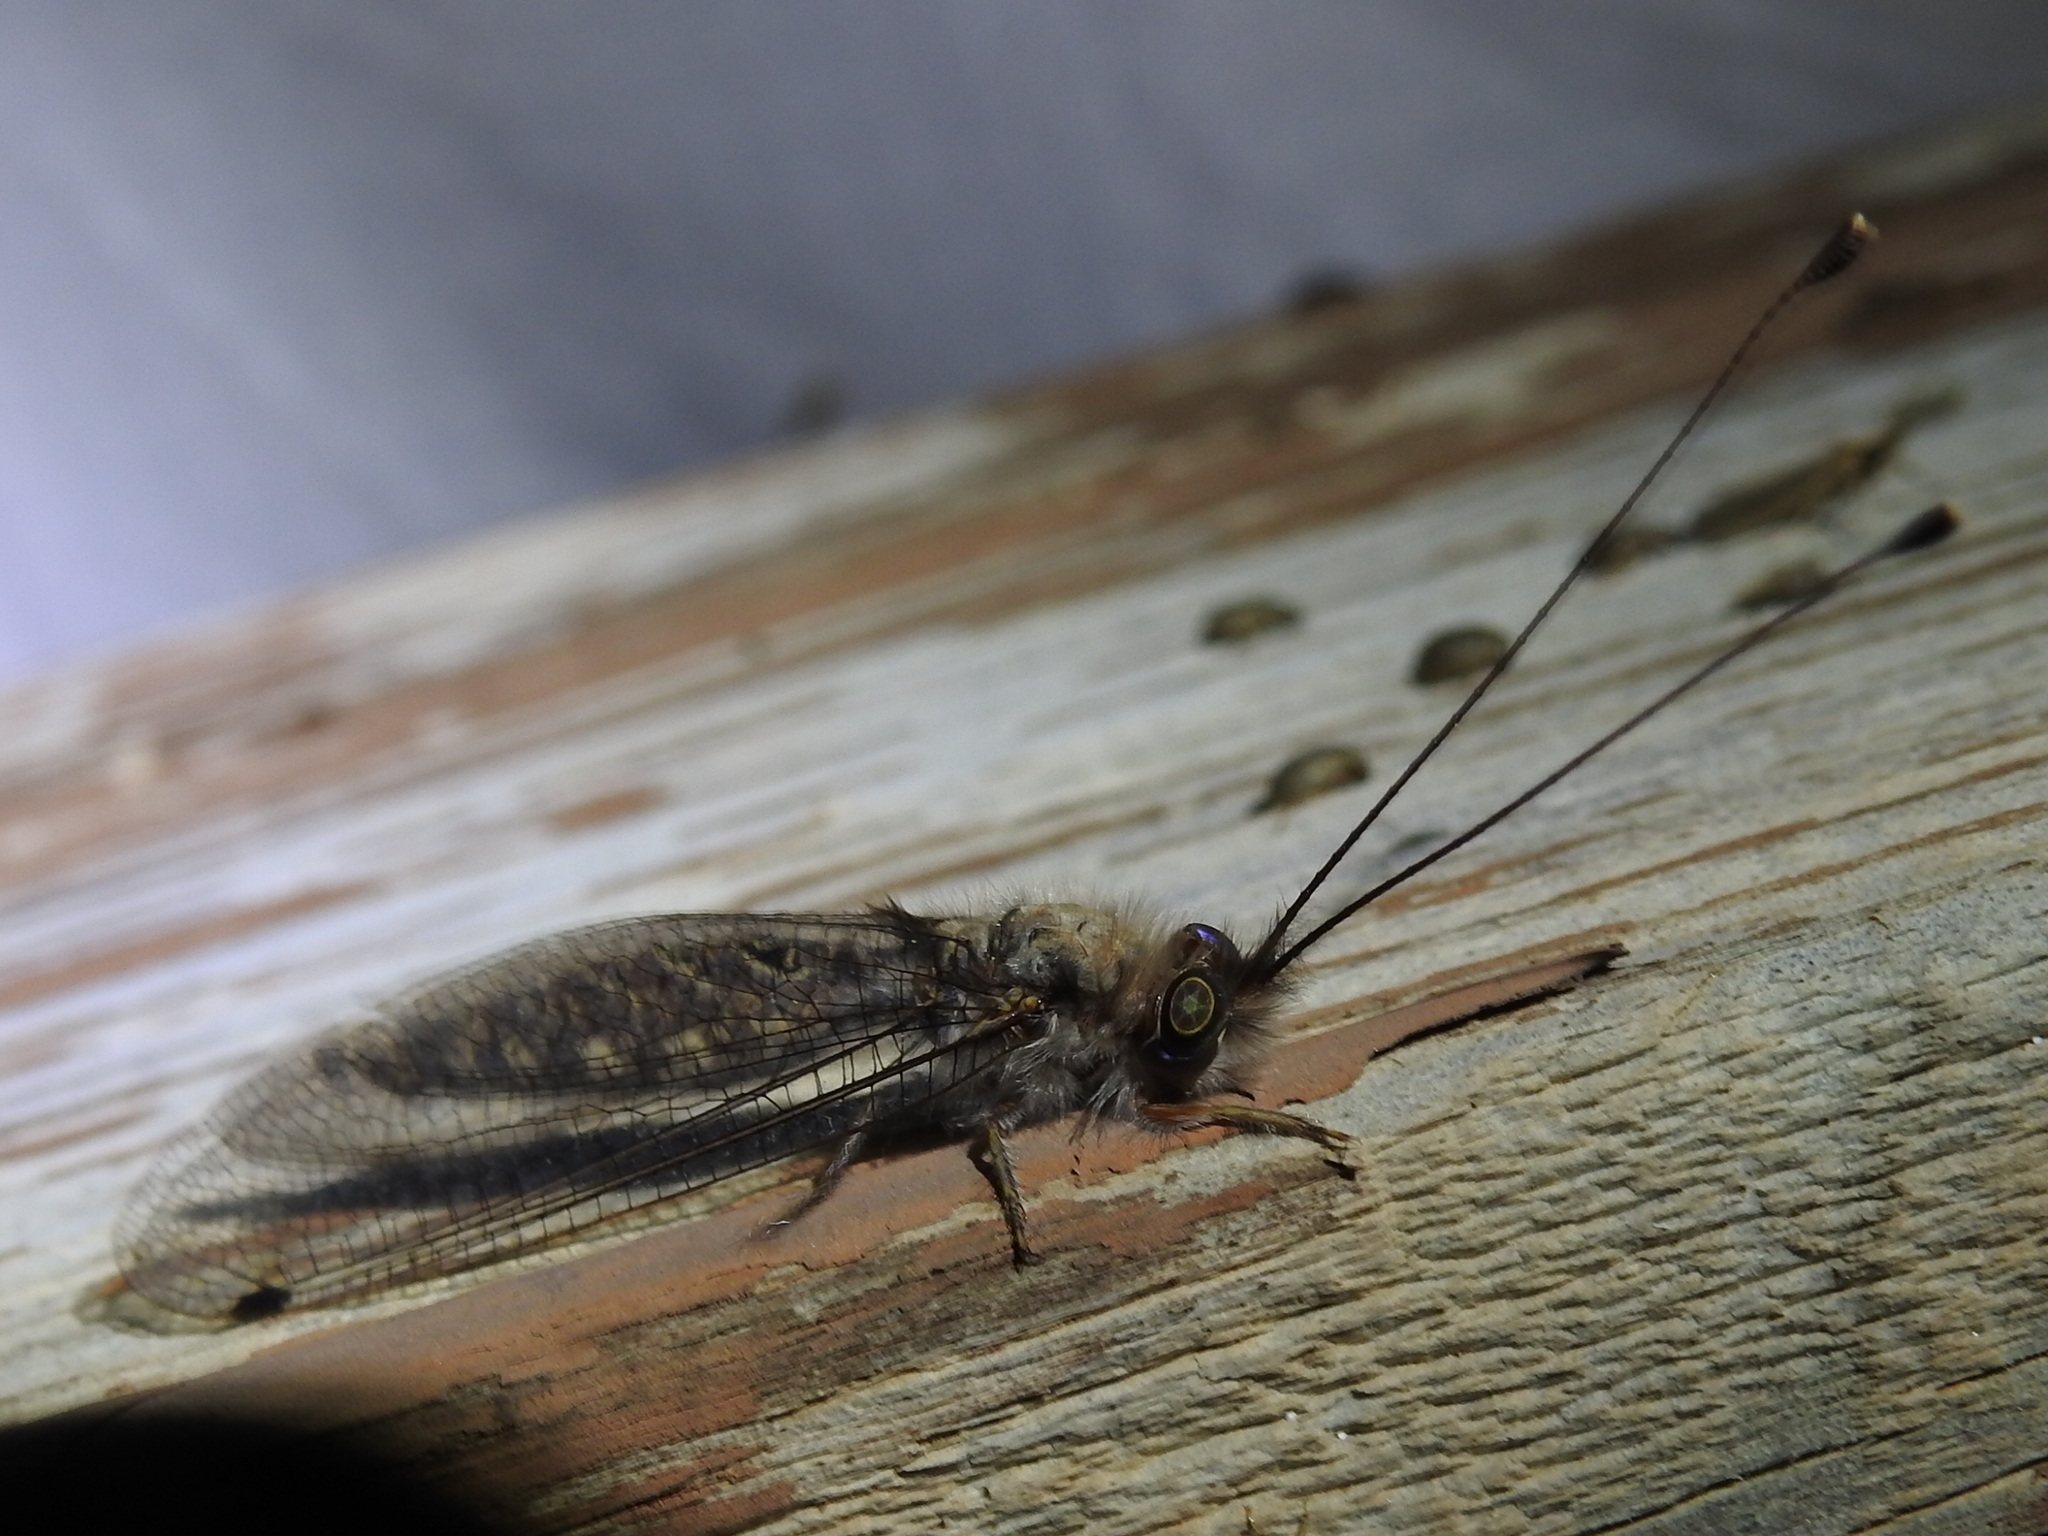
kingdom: Animalia
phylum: Arthropoda
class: Insecta
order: Neuroptera
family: Ascalaphidae
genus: Ululodes
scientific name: Ululodes macleayanus
